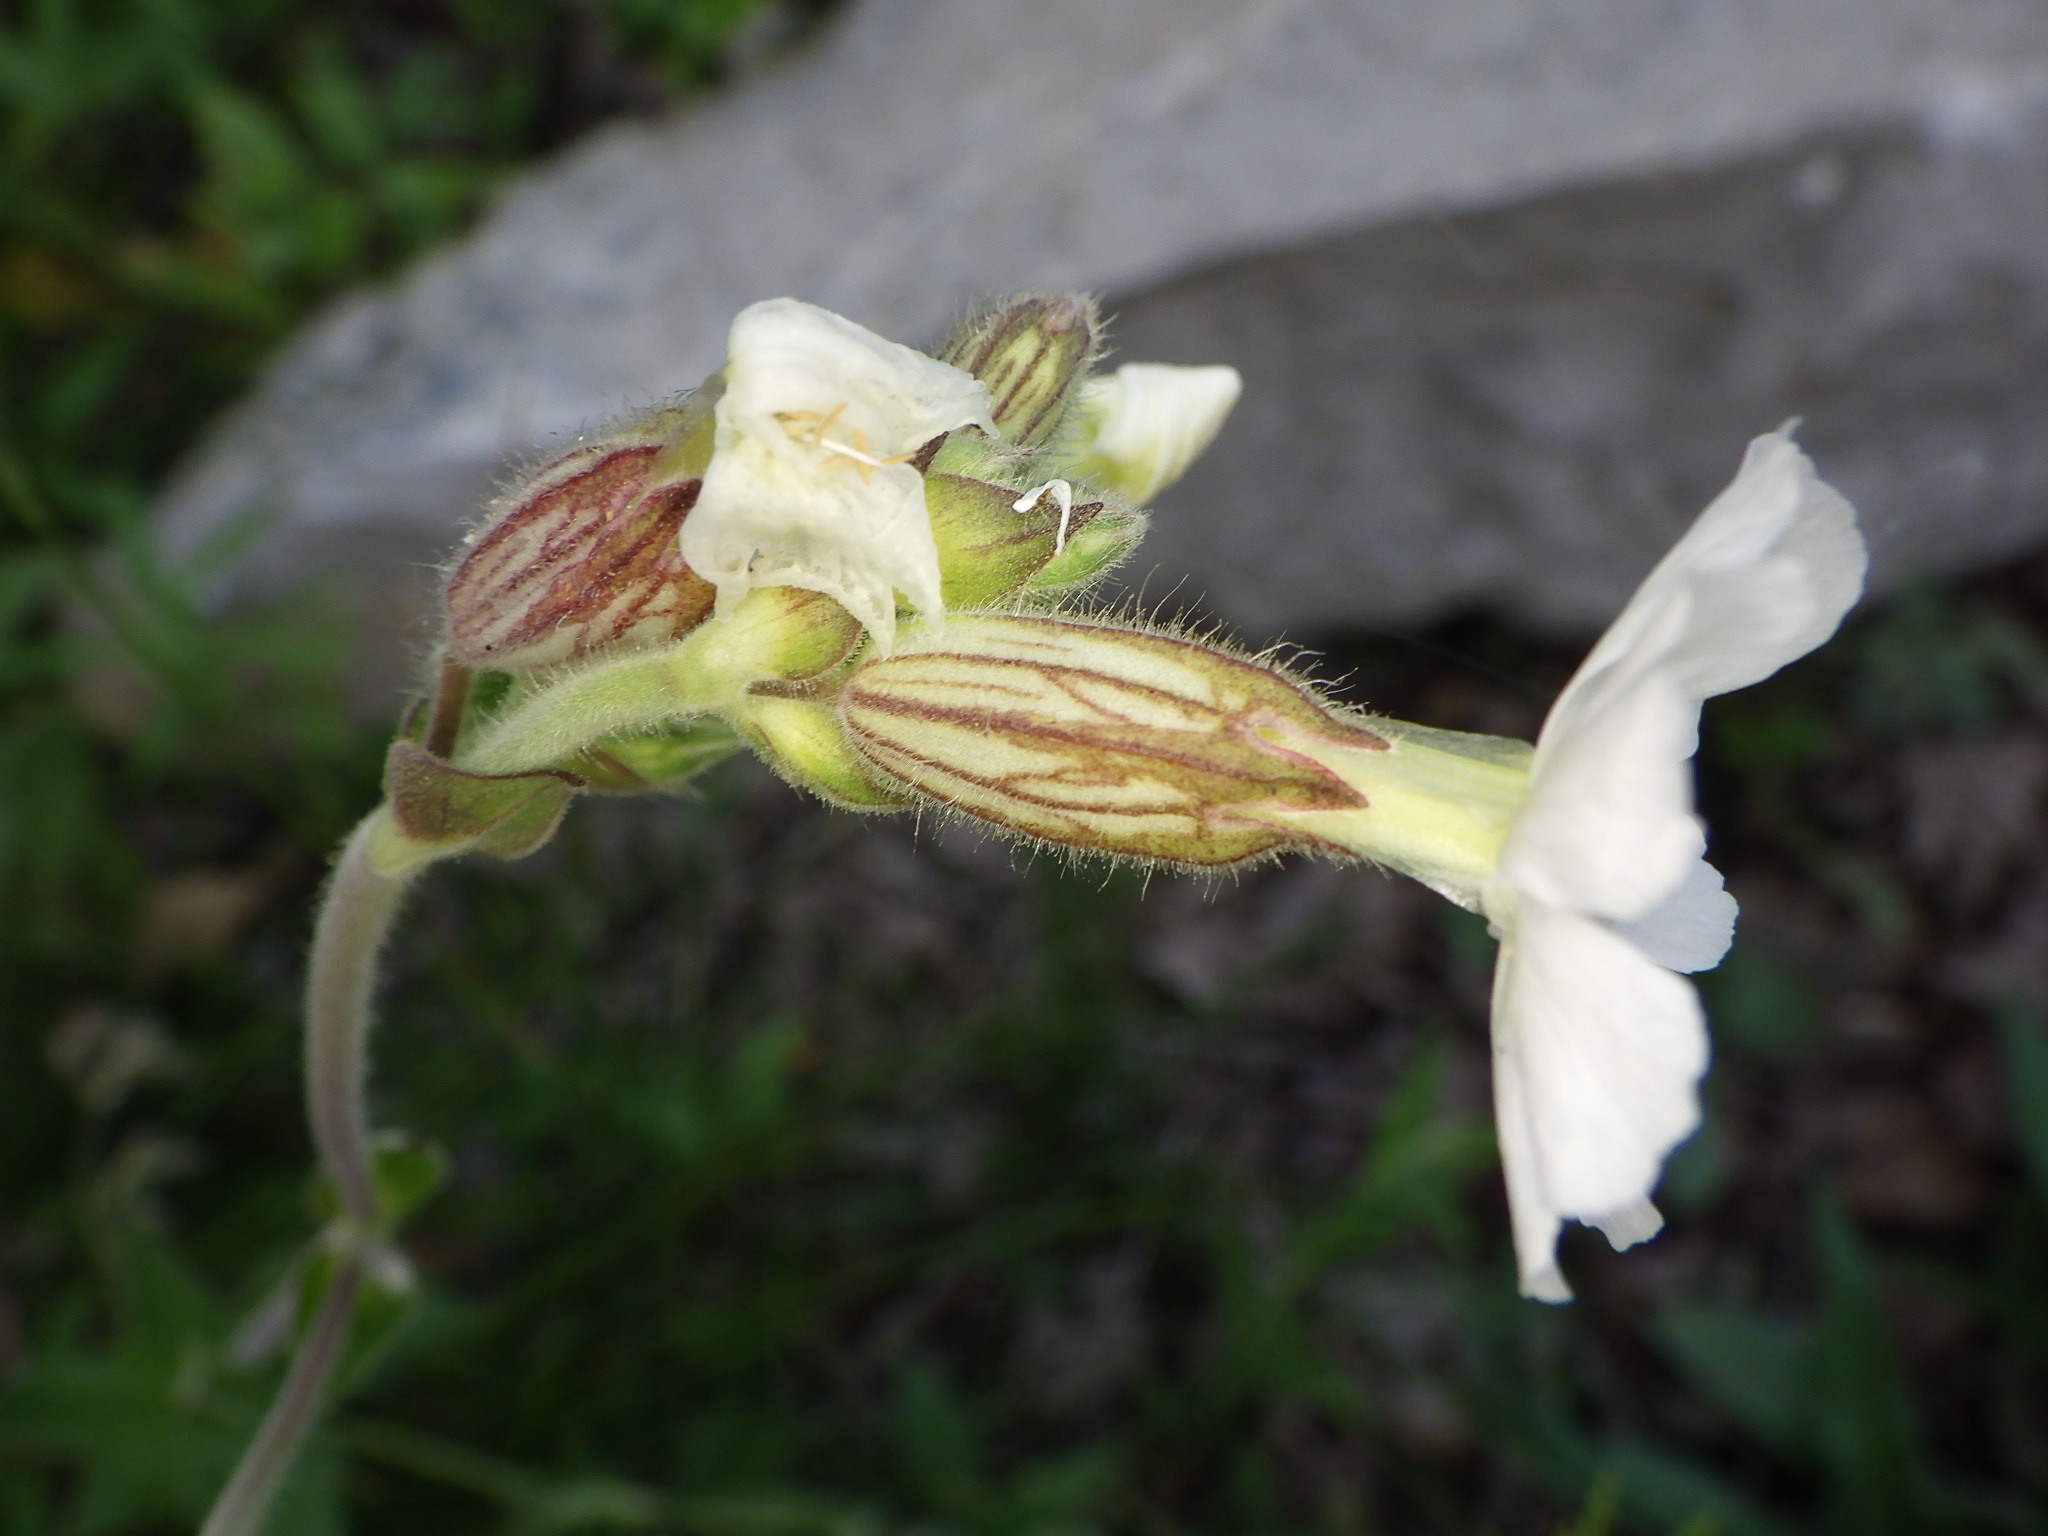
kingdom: Plantae
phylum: Tracheophyta
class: Magnoliopsida
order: Caryophyllales
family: Caryophyllaceae
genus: Silene
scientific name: Silene latifolia
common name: White campion
